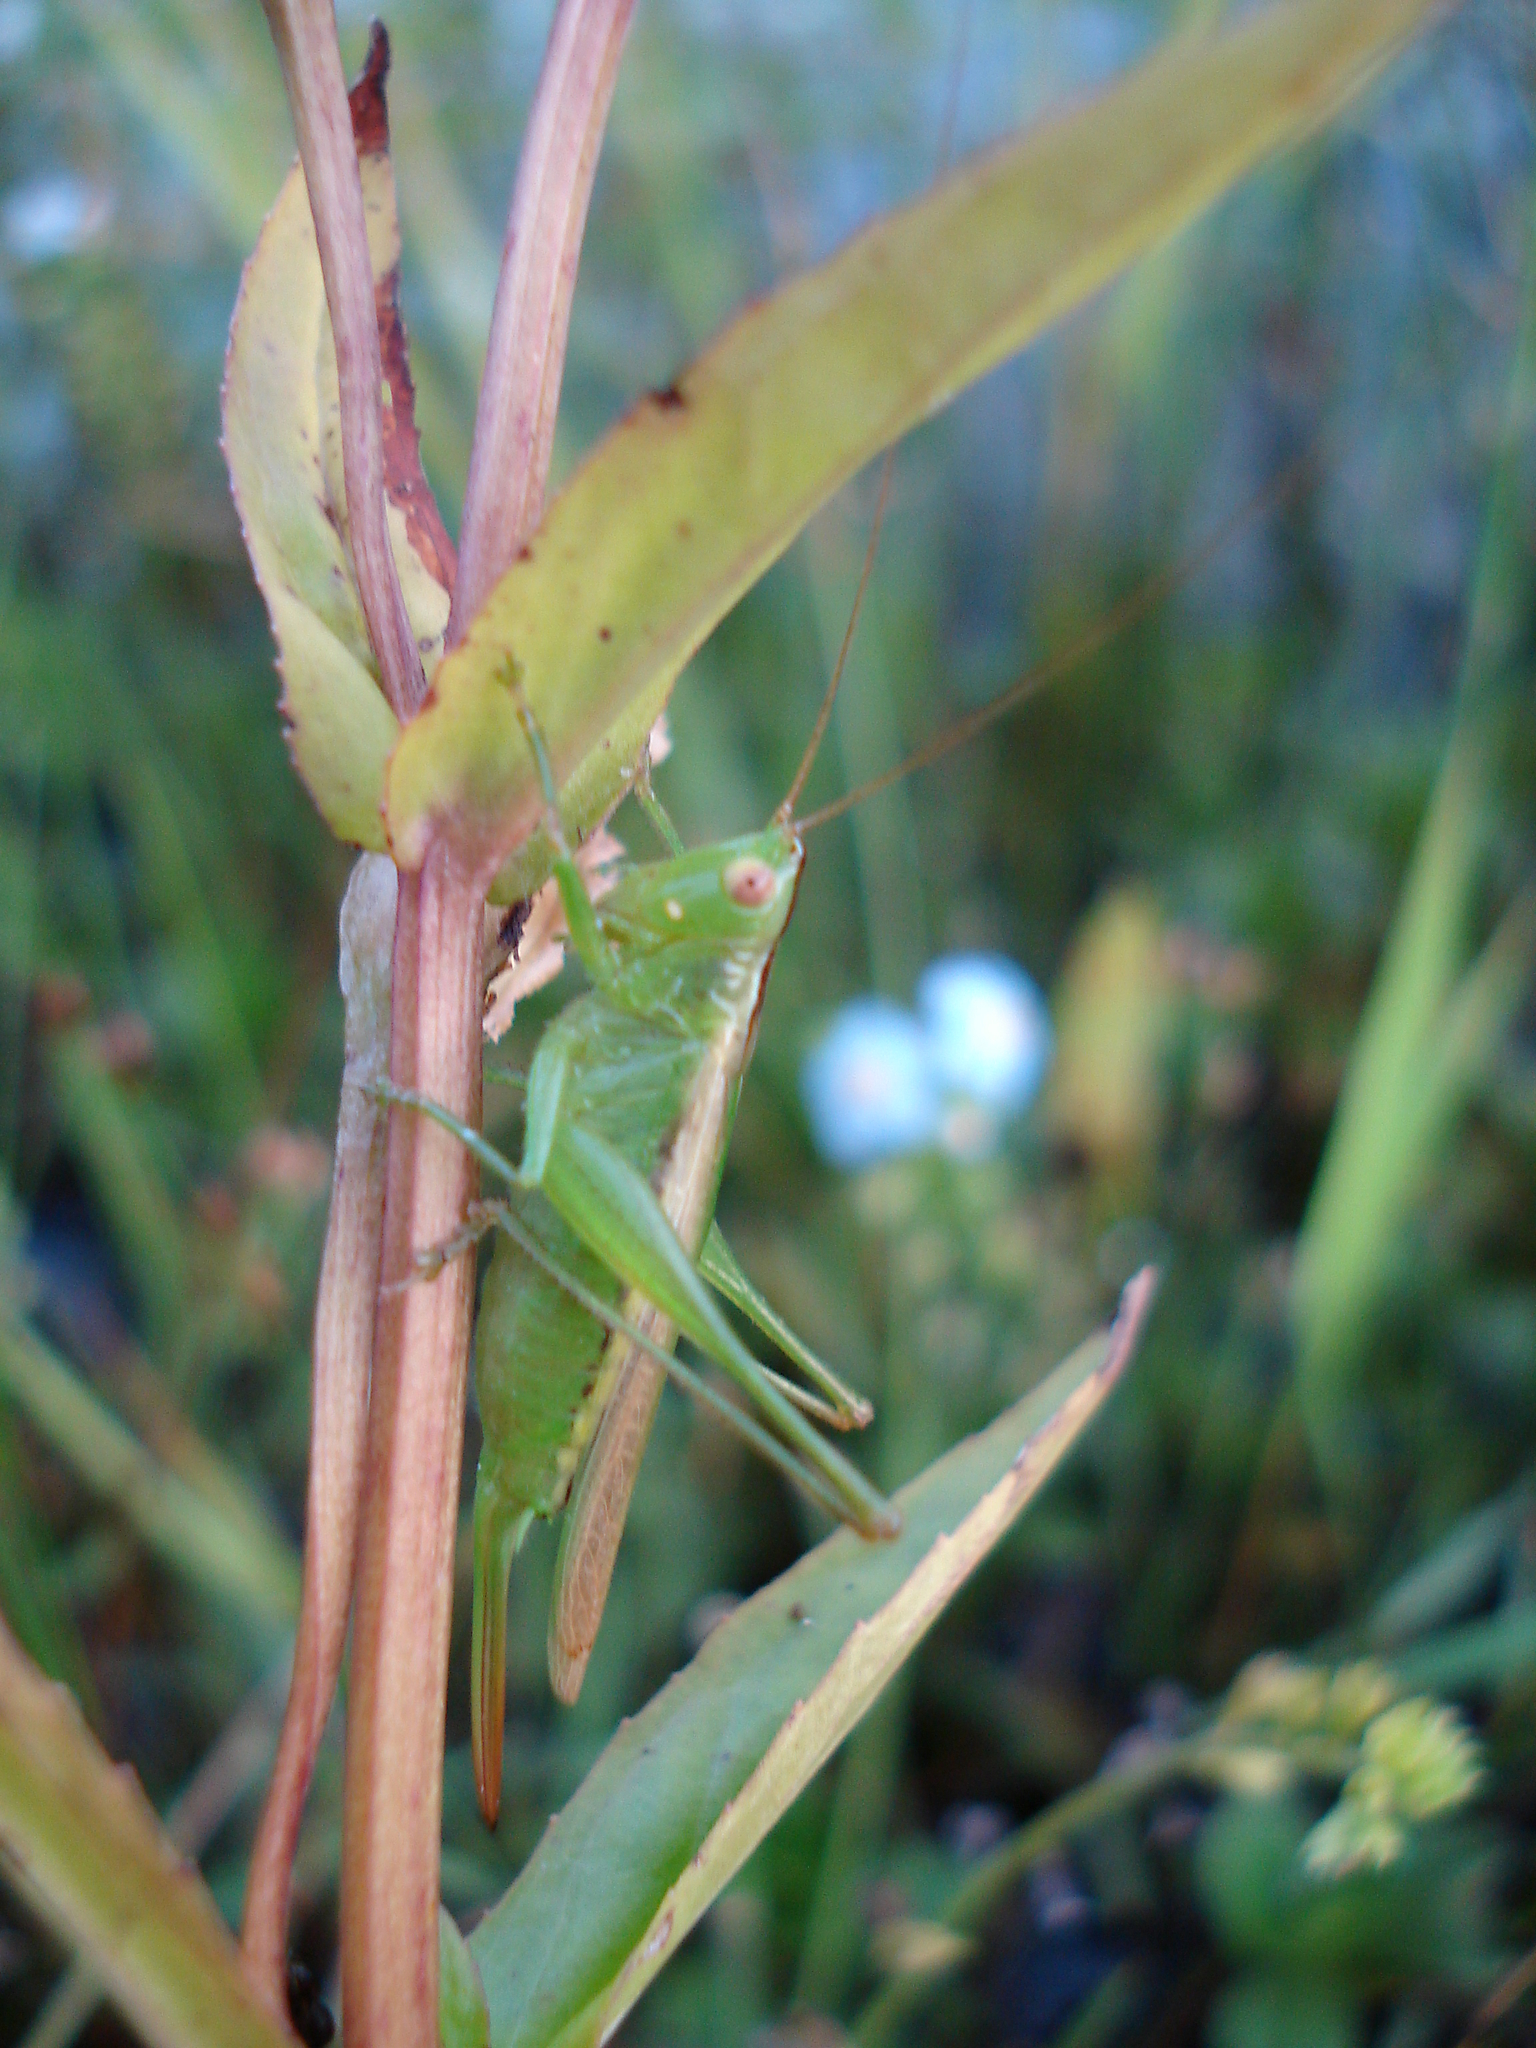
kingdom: Animalia
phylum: Arthropoda
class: Insecta
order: Orthoptera
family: Tettigoniidae
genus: Conocephalus
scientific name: Conocephalus fasciatus
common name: Slender meadow katydid
